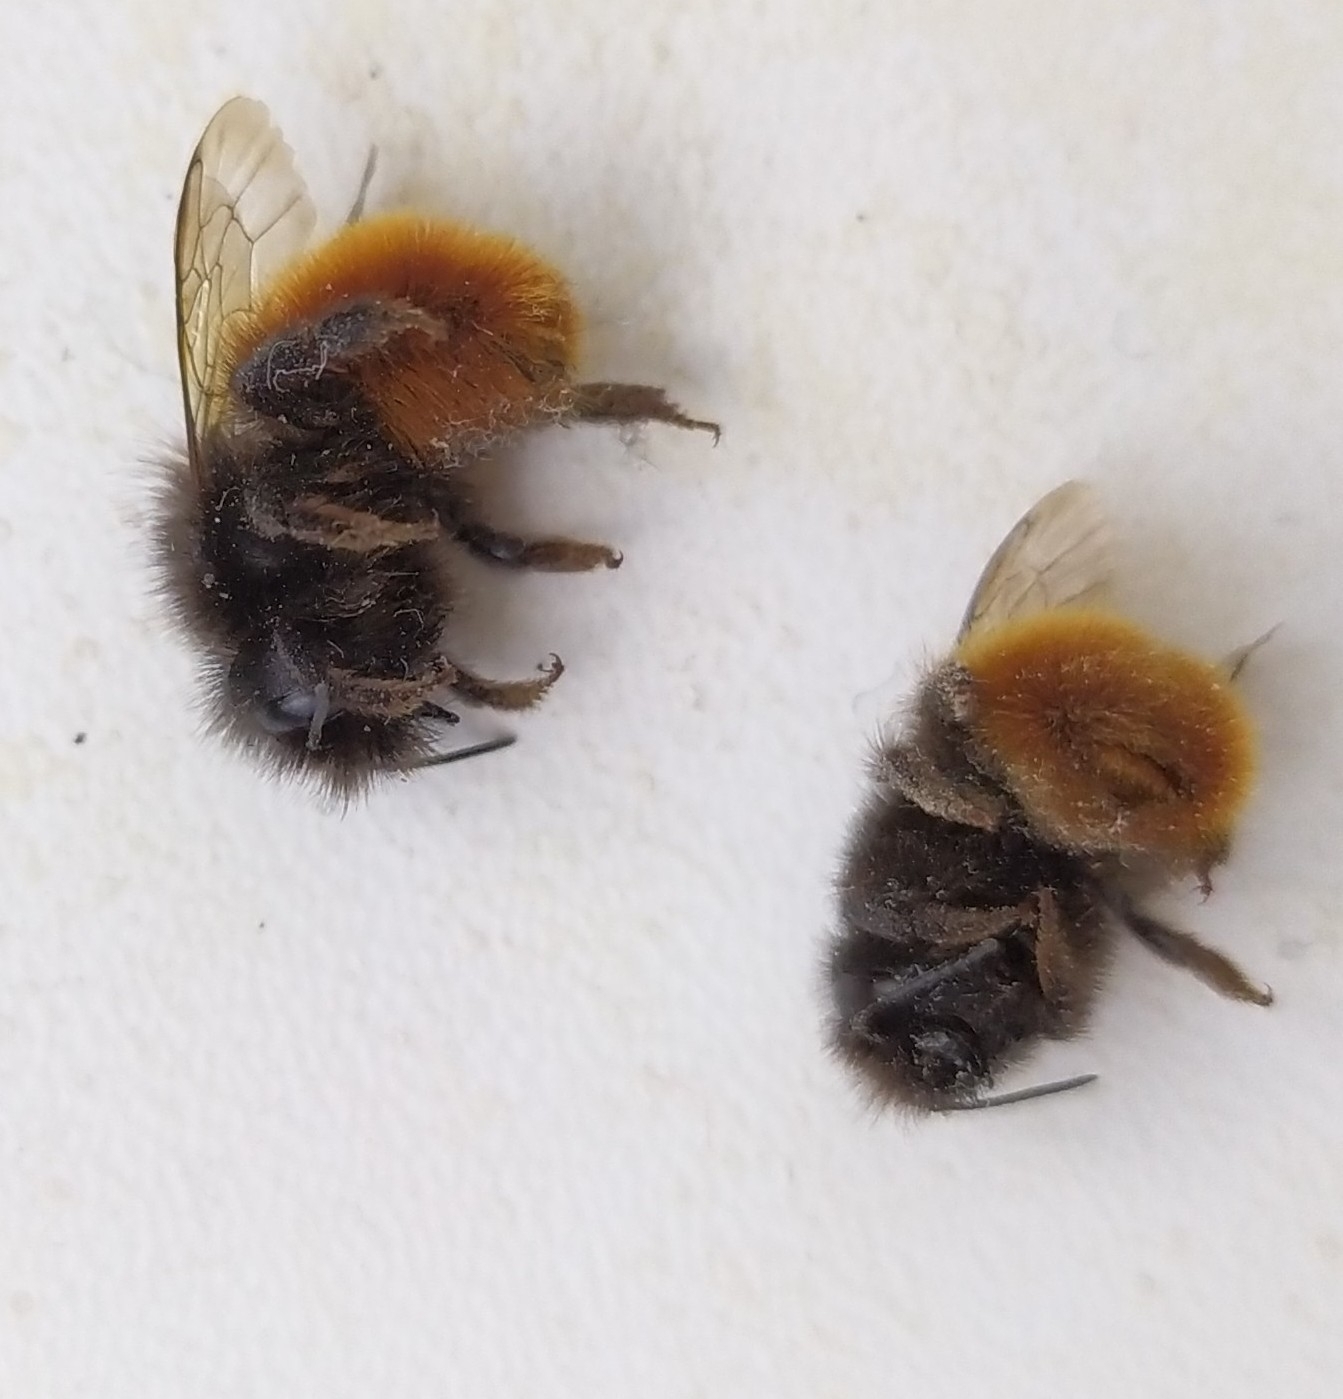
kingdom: Animalia
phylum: Arthropoda
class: Insecta
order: Hymenoptera
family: Megachilidae
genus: Osmia
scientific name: Osmia cornuta
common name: Mason bee
